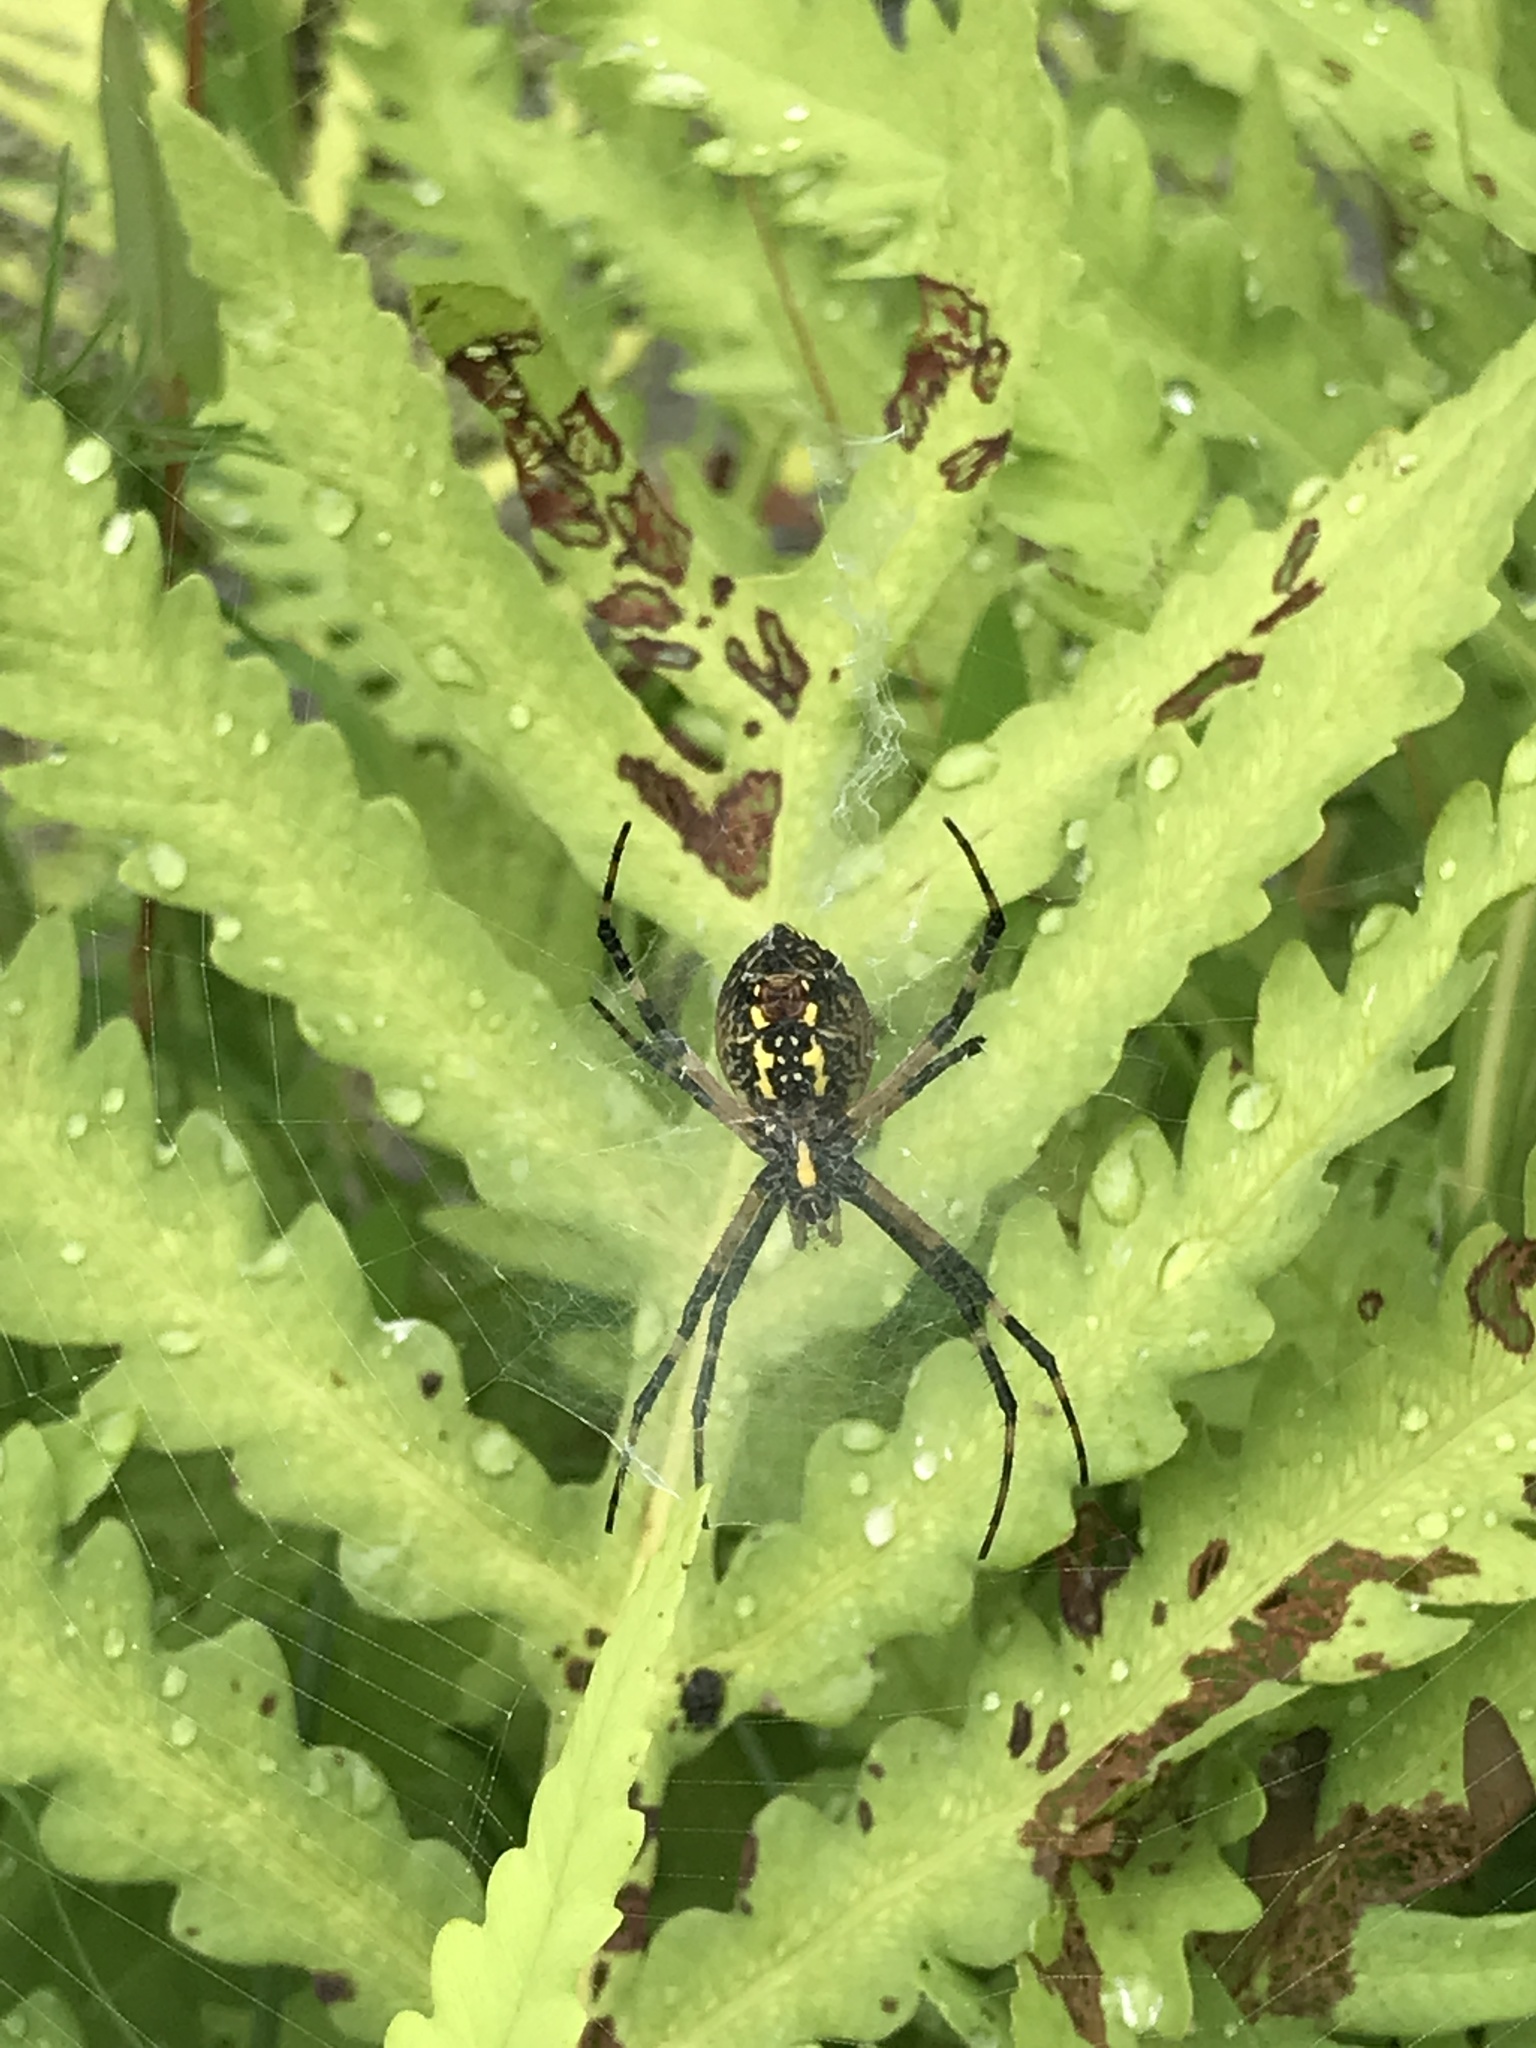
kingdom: Animalia
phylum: Arthropoda
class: Arachnida
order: Araneae
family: Araneidae
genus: Argiope
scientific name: Argiope aurantia
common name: Orb weavers
